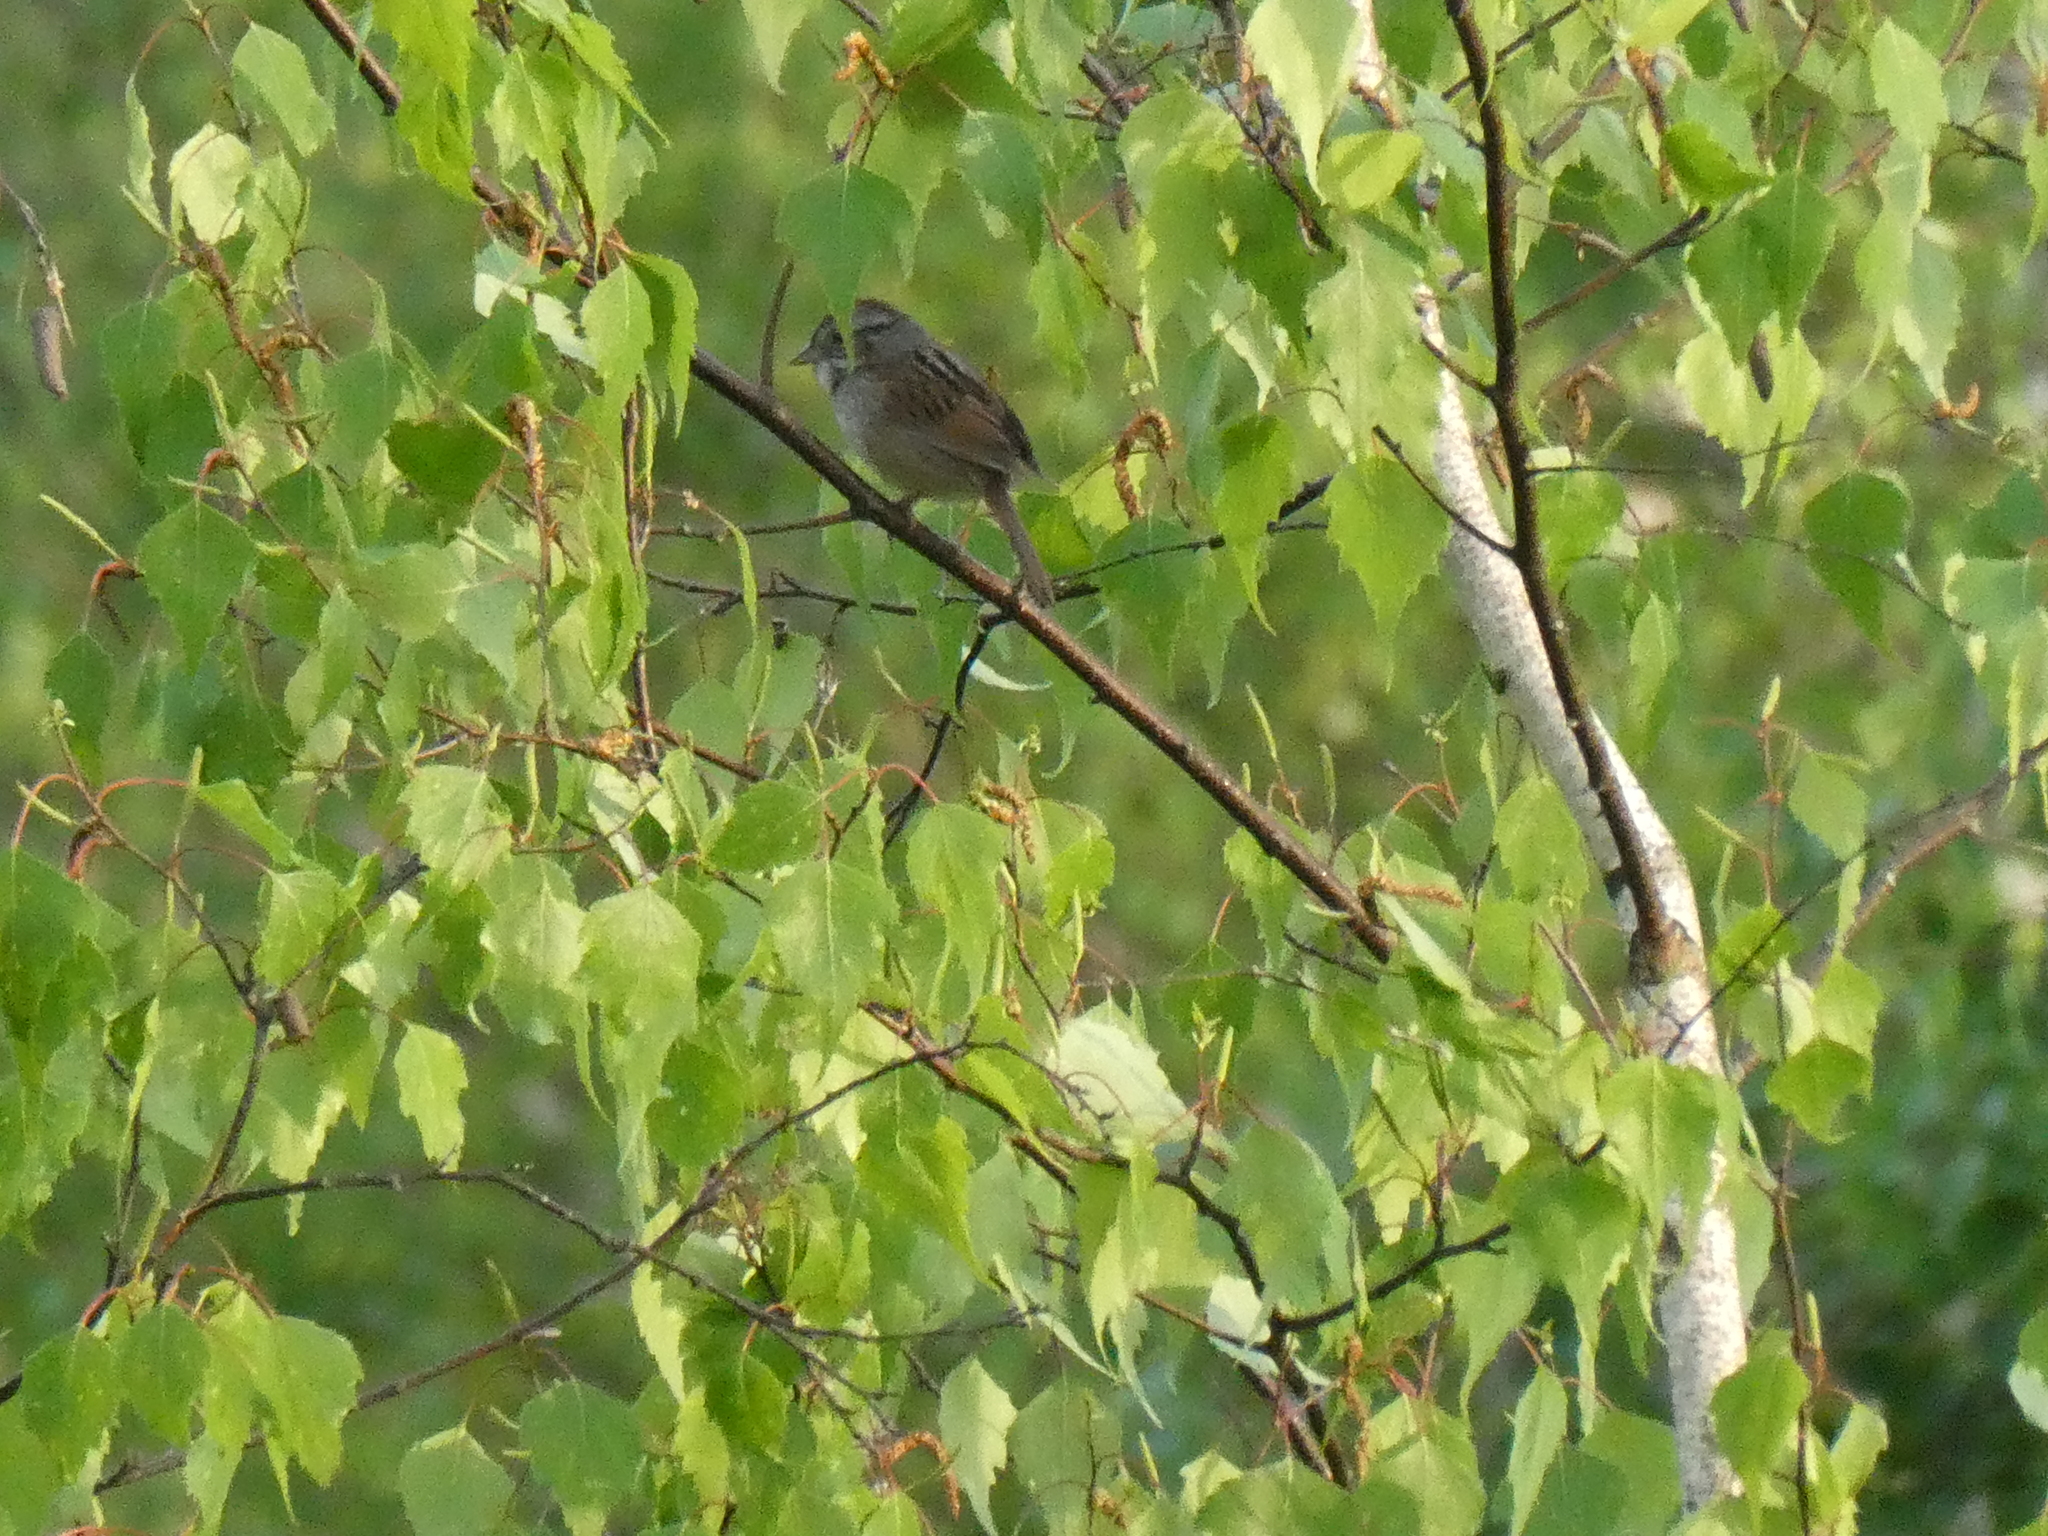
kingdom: Animalia
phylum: Chordata
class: Aves
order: Passeriformes
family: Passerellidae
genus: Melospiza
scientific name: Melospiza georgiana
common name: Swamp sparrow
